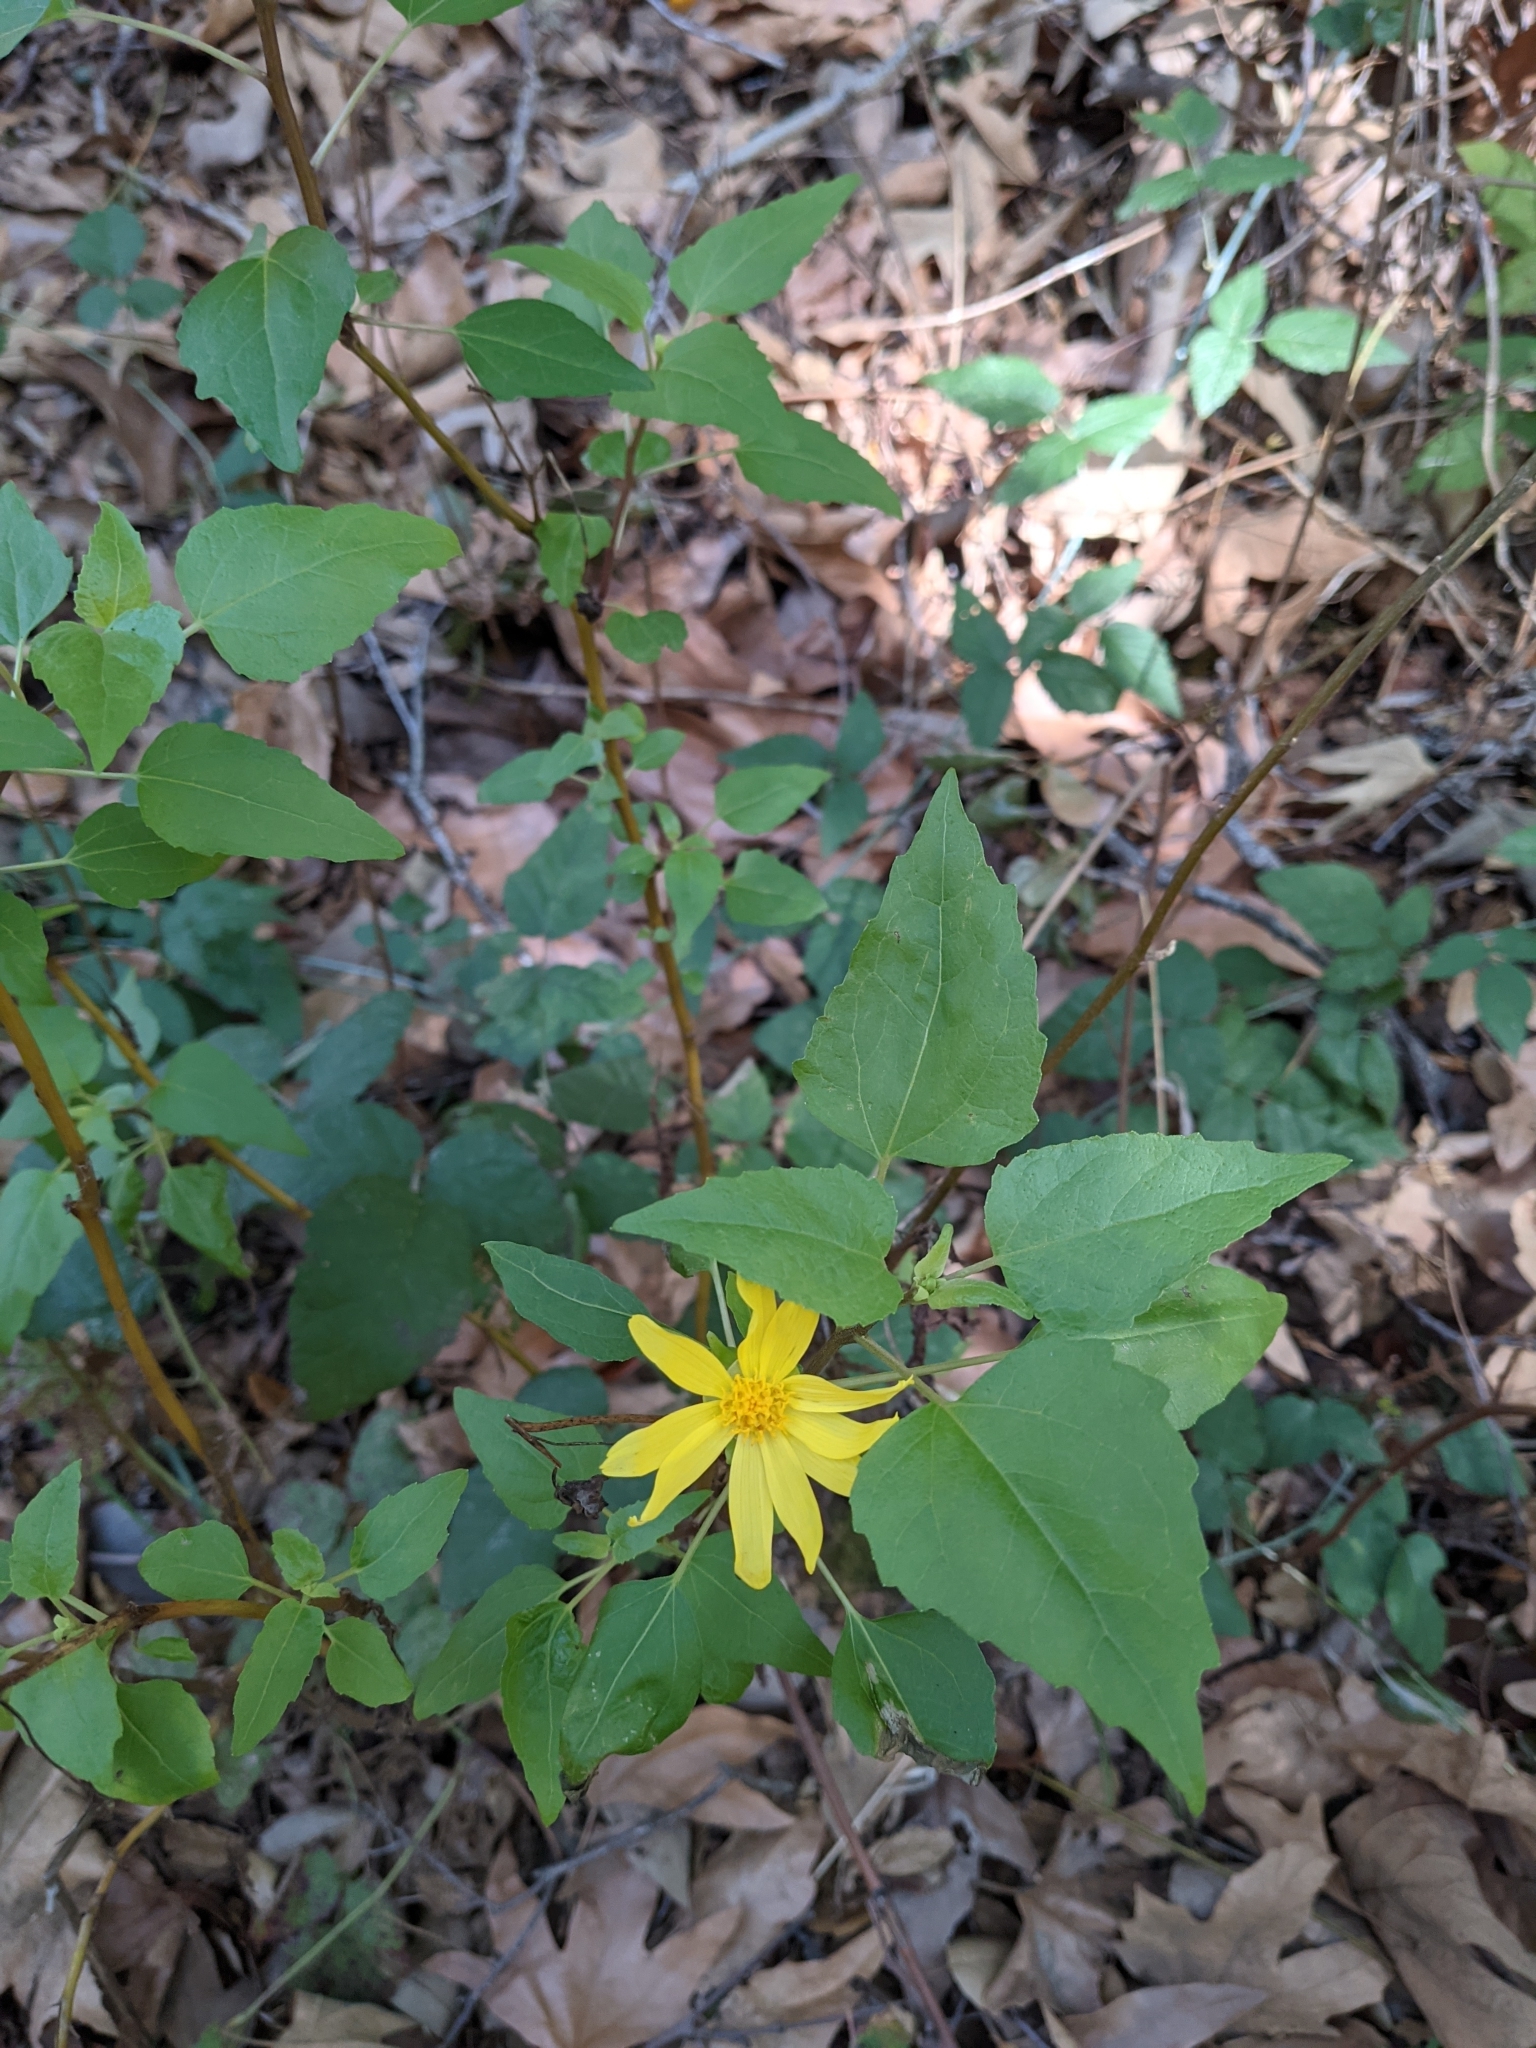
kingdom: Plantae
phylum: Tracheophyta
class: Magnoliopsida
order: Asterales
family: Asteraceae
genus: Venegasia
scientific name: Venegasia carpesioides
